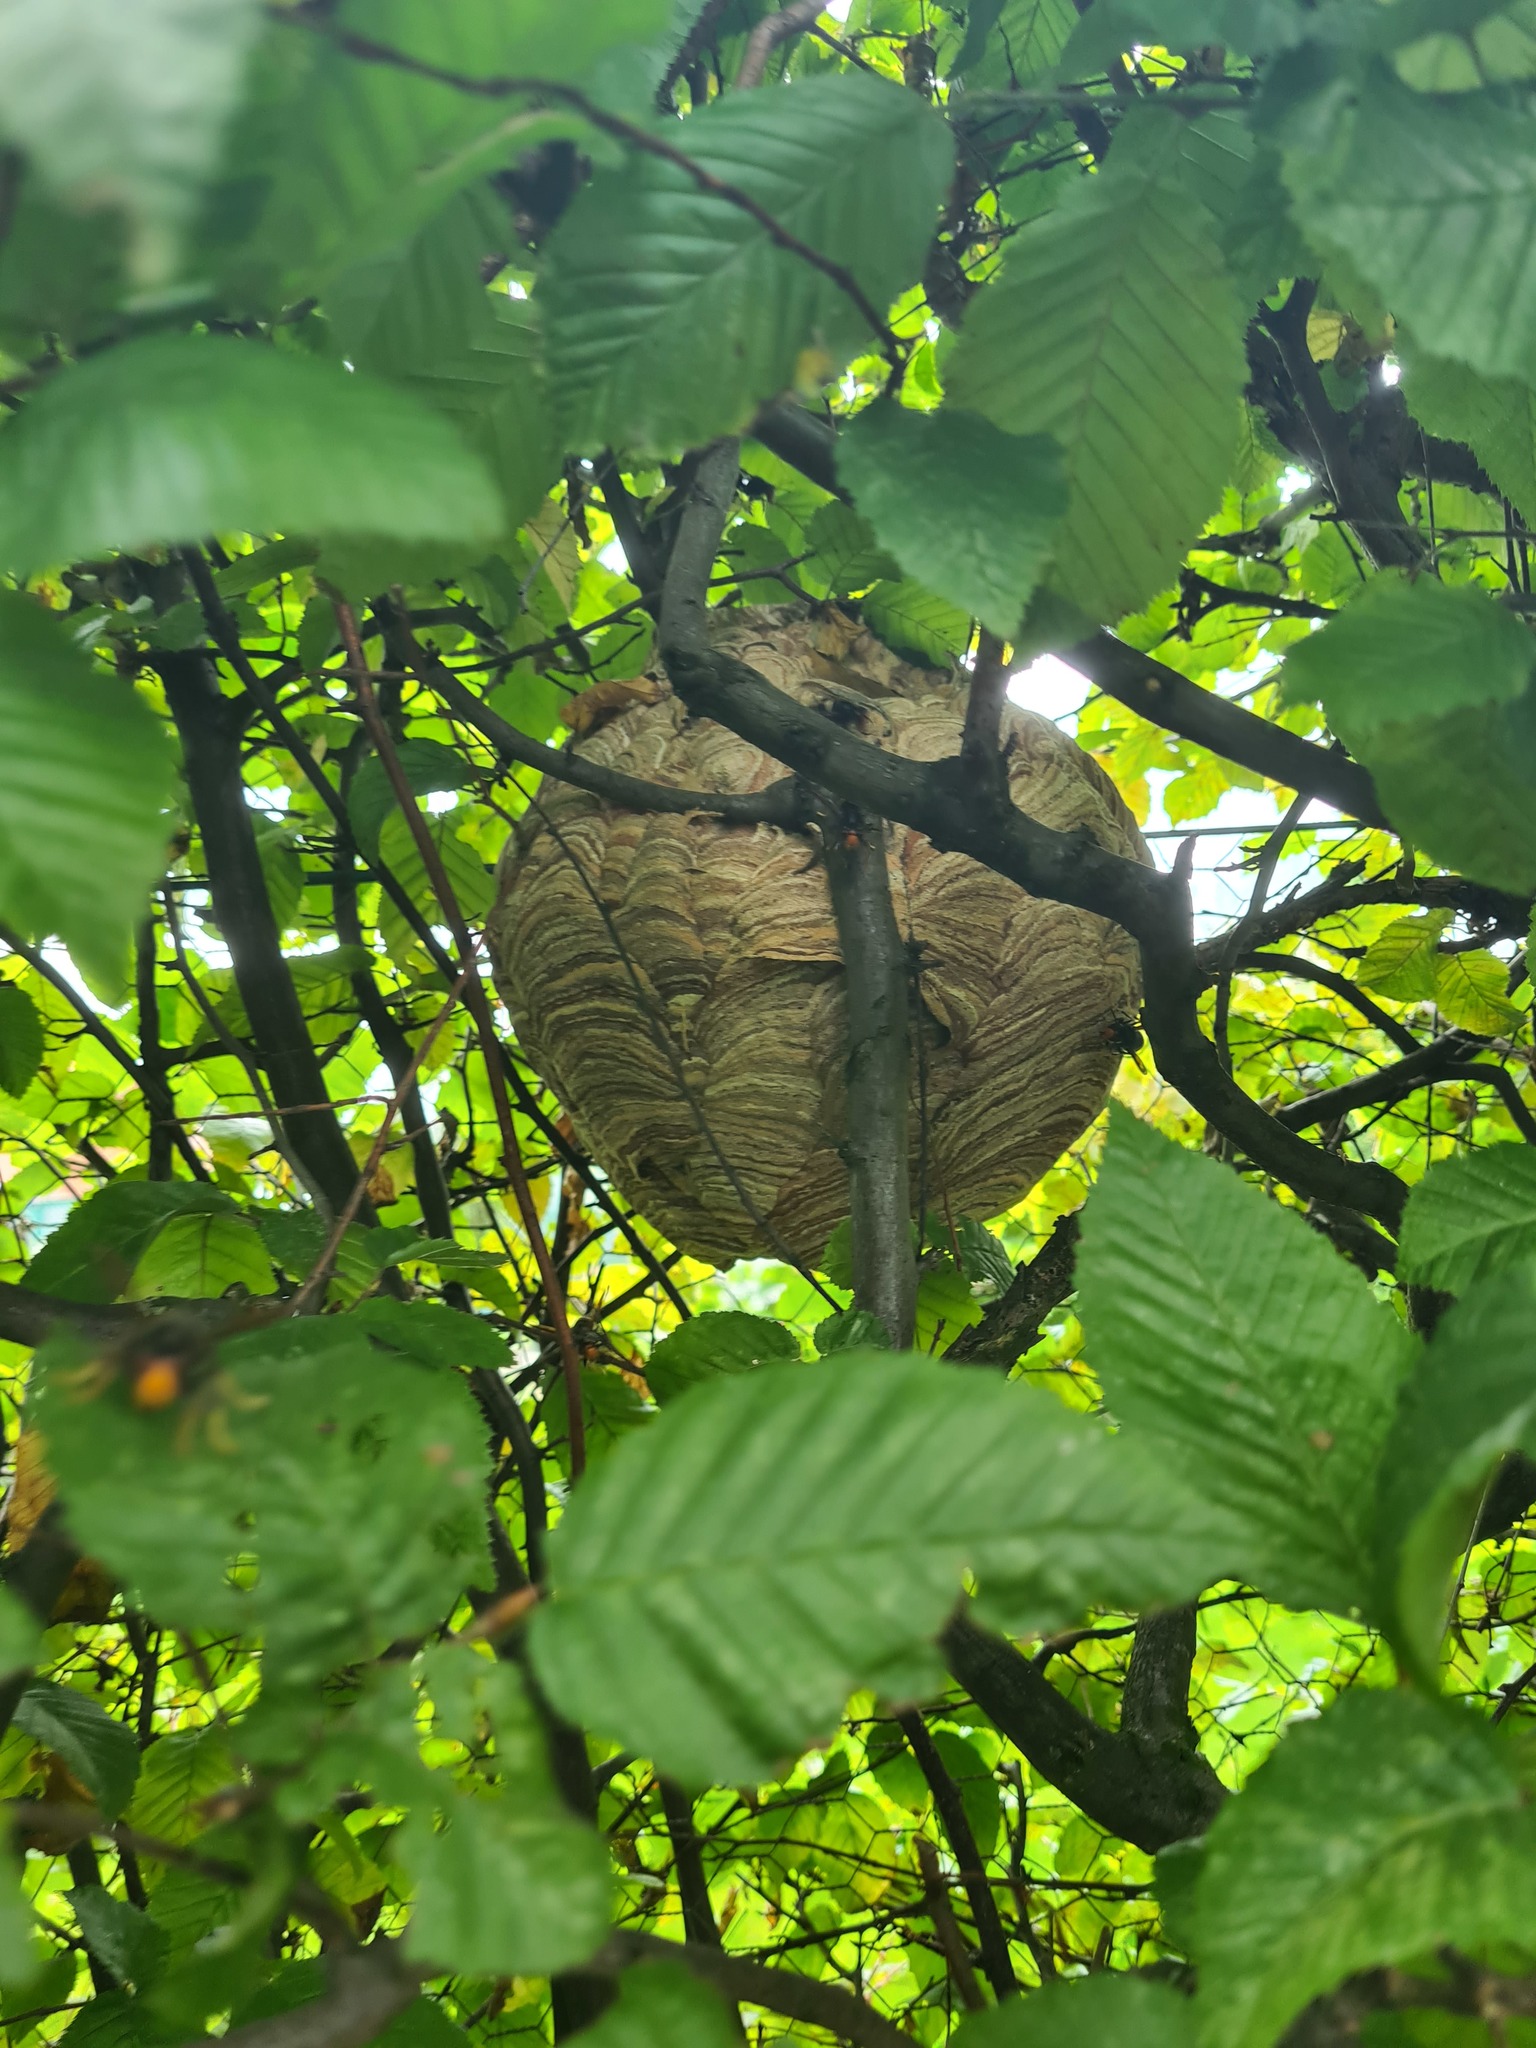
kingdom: Animalia
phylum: Arthropoda
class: Insecta
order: Hymenoptera
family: Vespidae
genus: Vespa
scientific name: Vespa velutina
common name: Asian hornet
